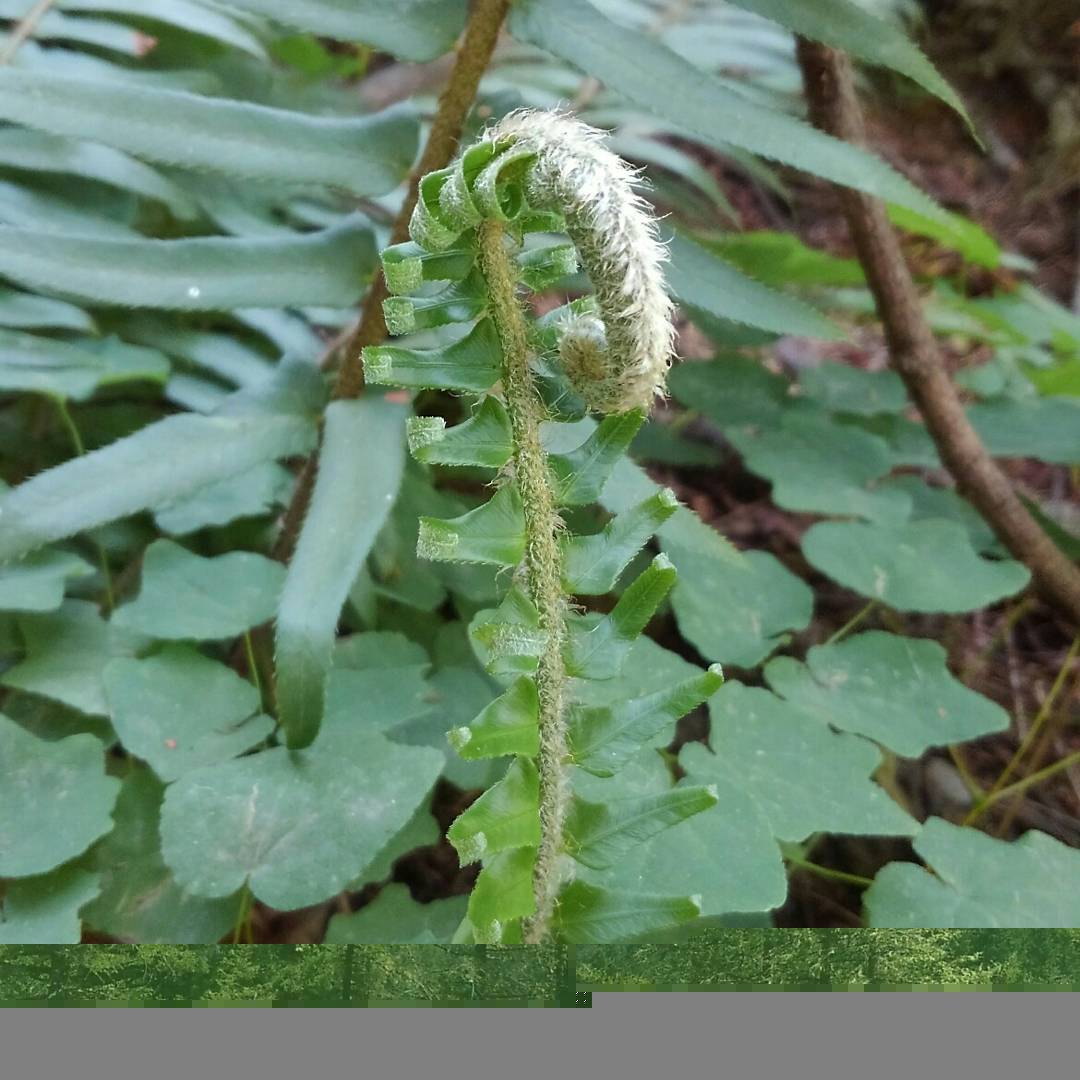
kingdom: Plantae
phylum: Tracheophyta
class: Polypodiopsida
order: Polypodiales
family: Dryopteridaceae
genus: Polystichum
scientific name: Polystichum munitum
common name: Western sword-fern
